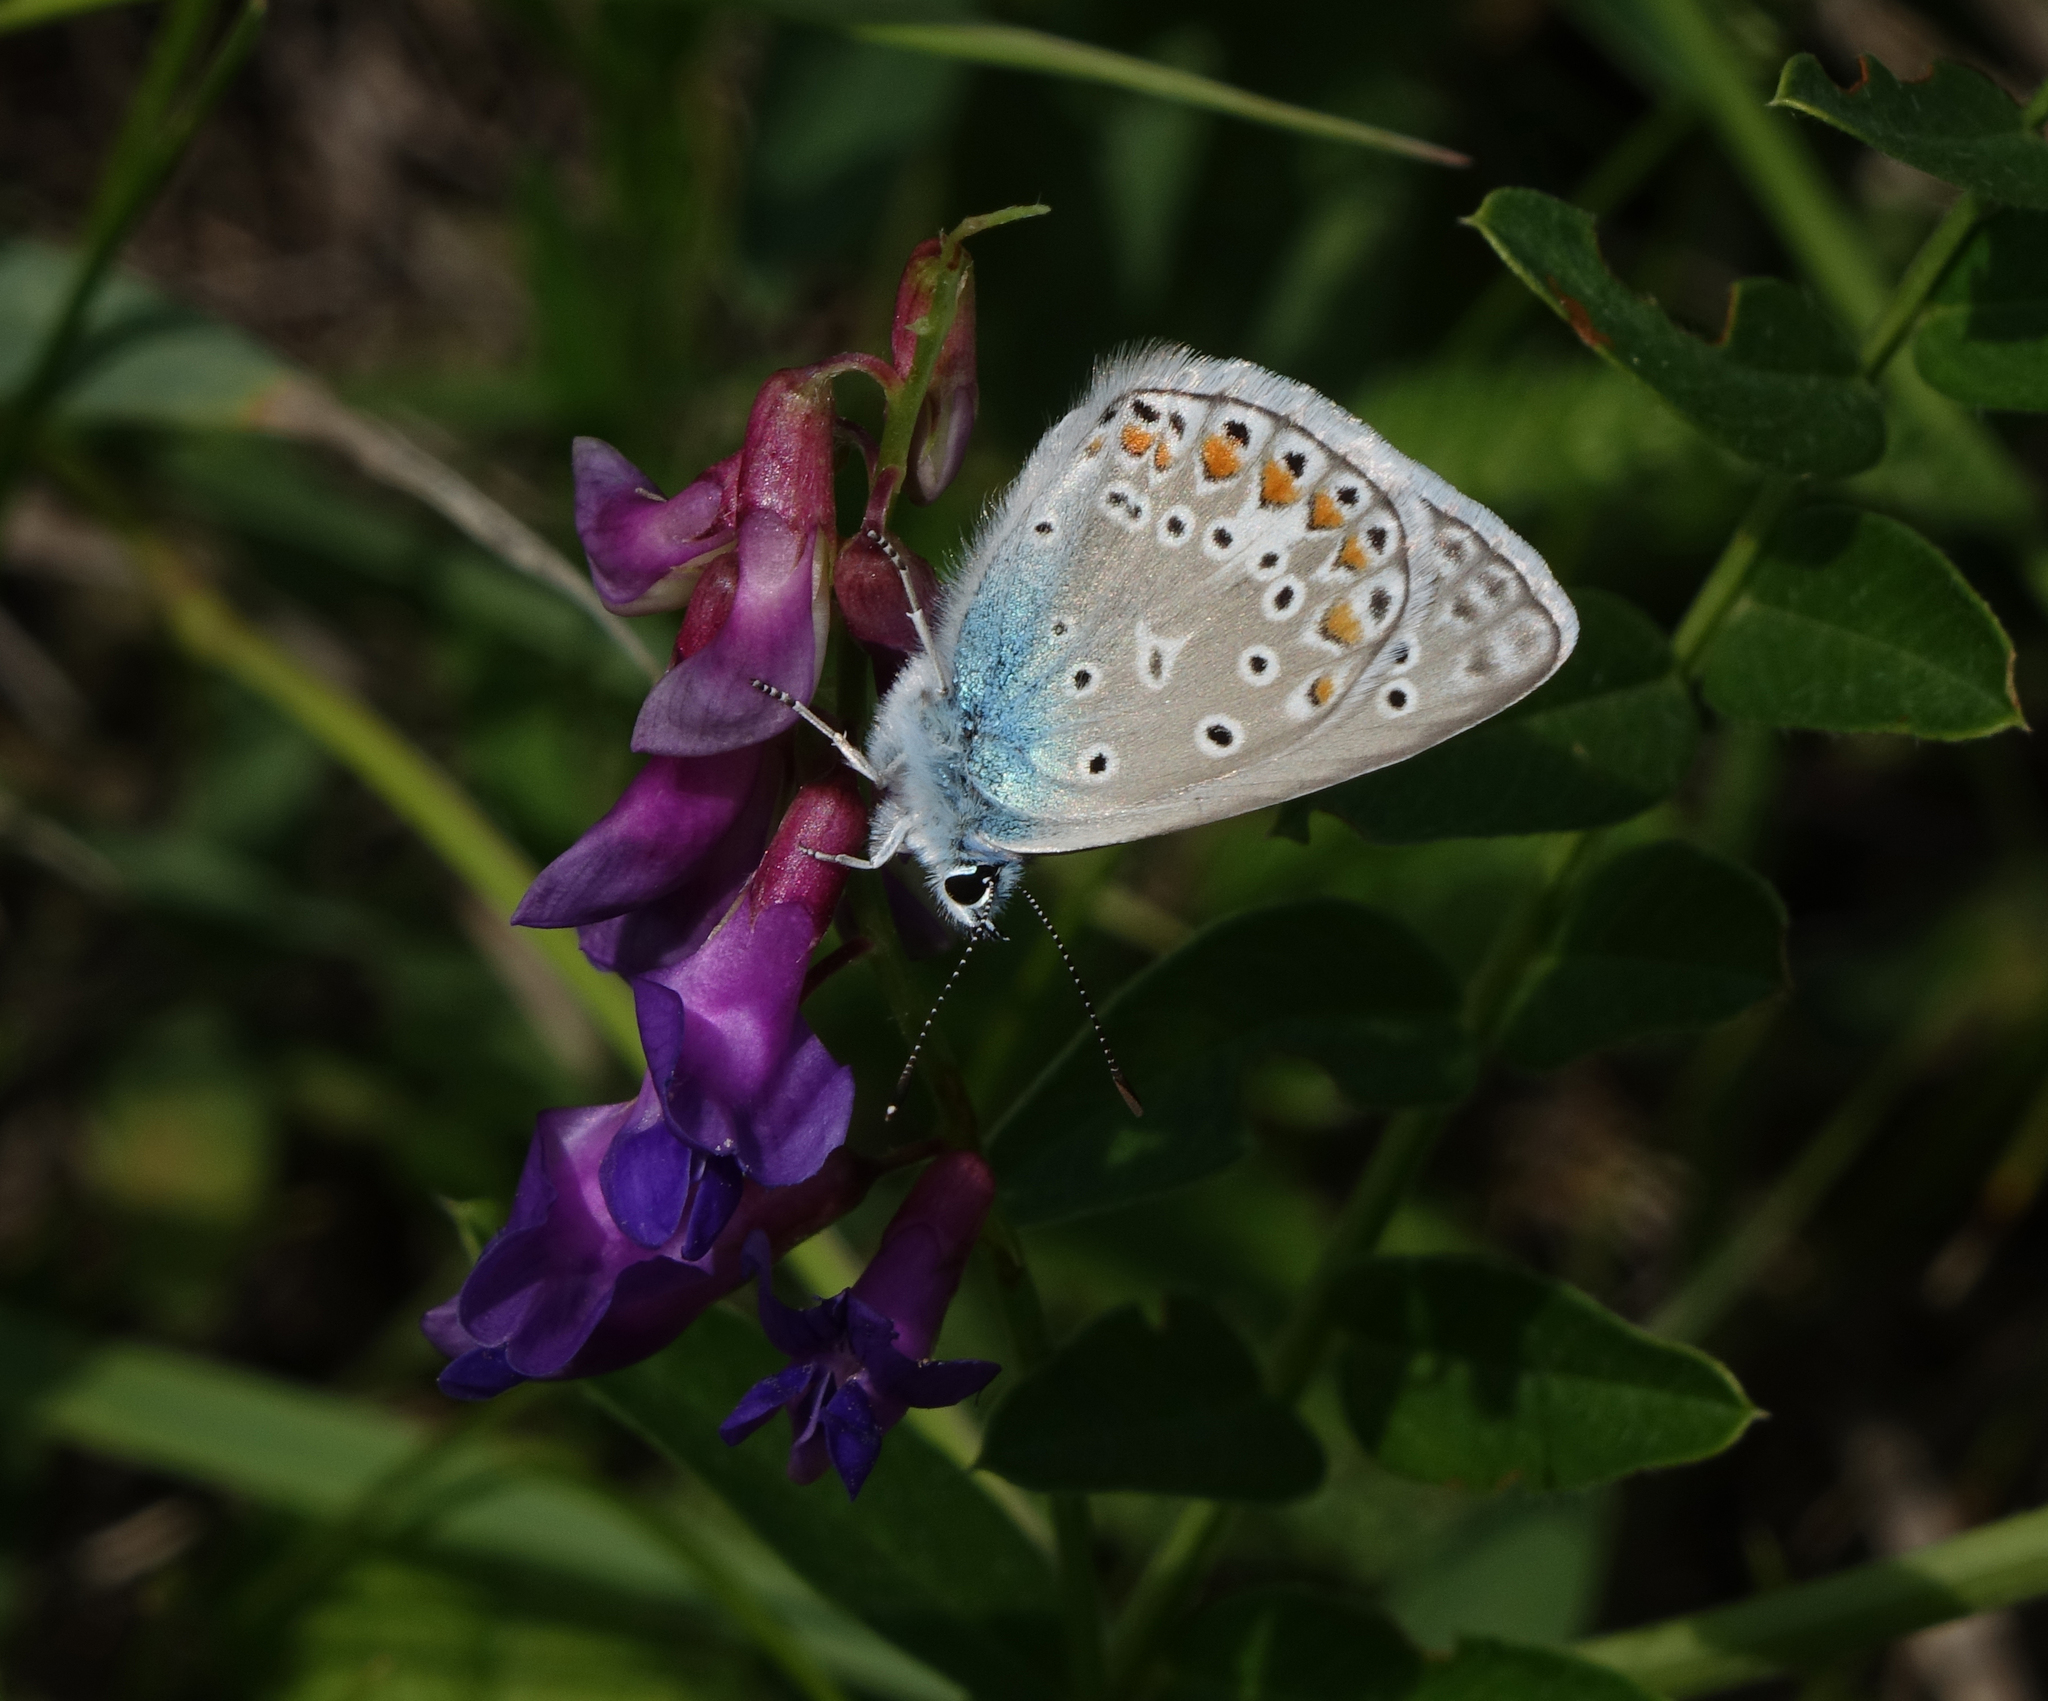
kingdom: Plantae
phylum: Tracheophyta
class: Magnoliopsida
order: Fabales
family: Fabaceae
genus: Vicia
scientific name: Vicia amoena
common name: Cheder ebs
